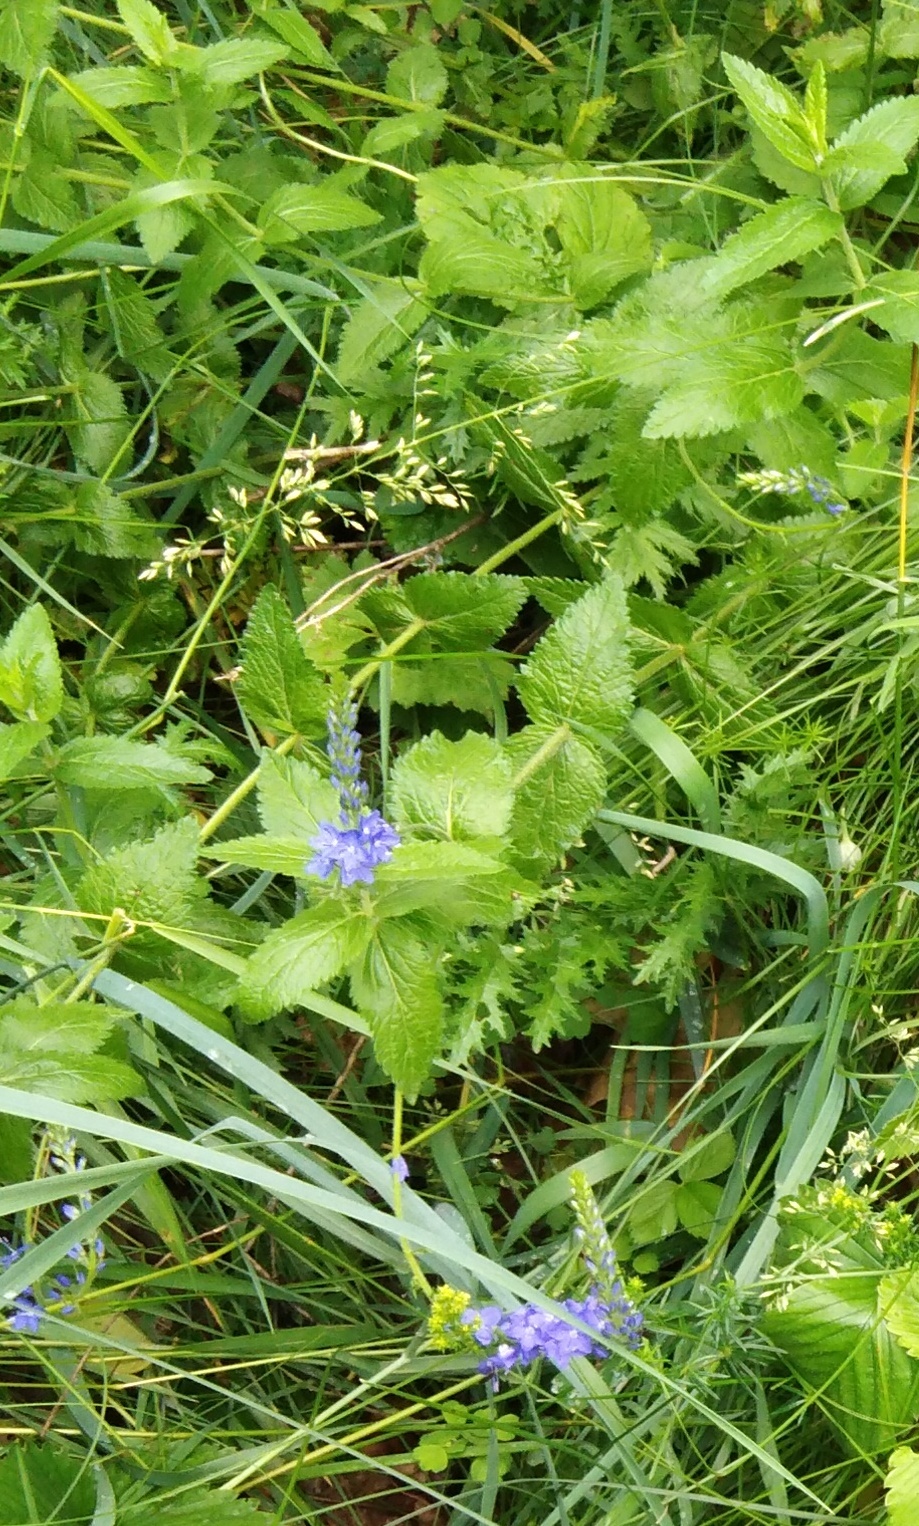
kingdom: Plantae
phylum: Tracheophyta
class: Magnoliopsida
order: Lamiales
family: Plantaginaceae
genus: Veronica
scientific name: Veronica teucrium
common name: Large speedwell
